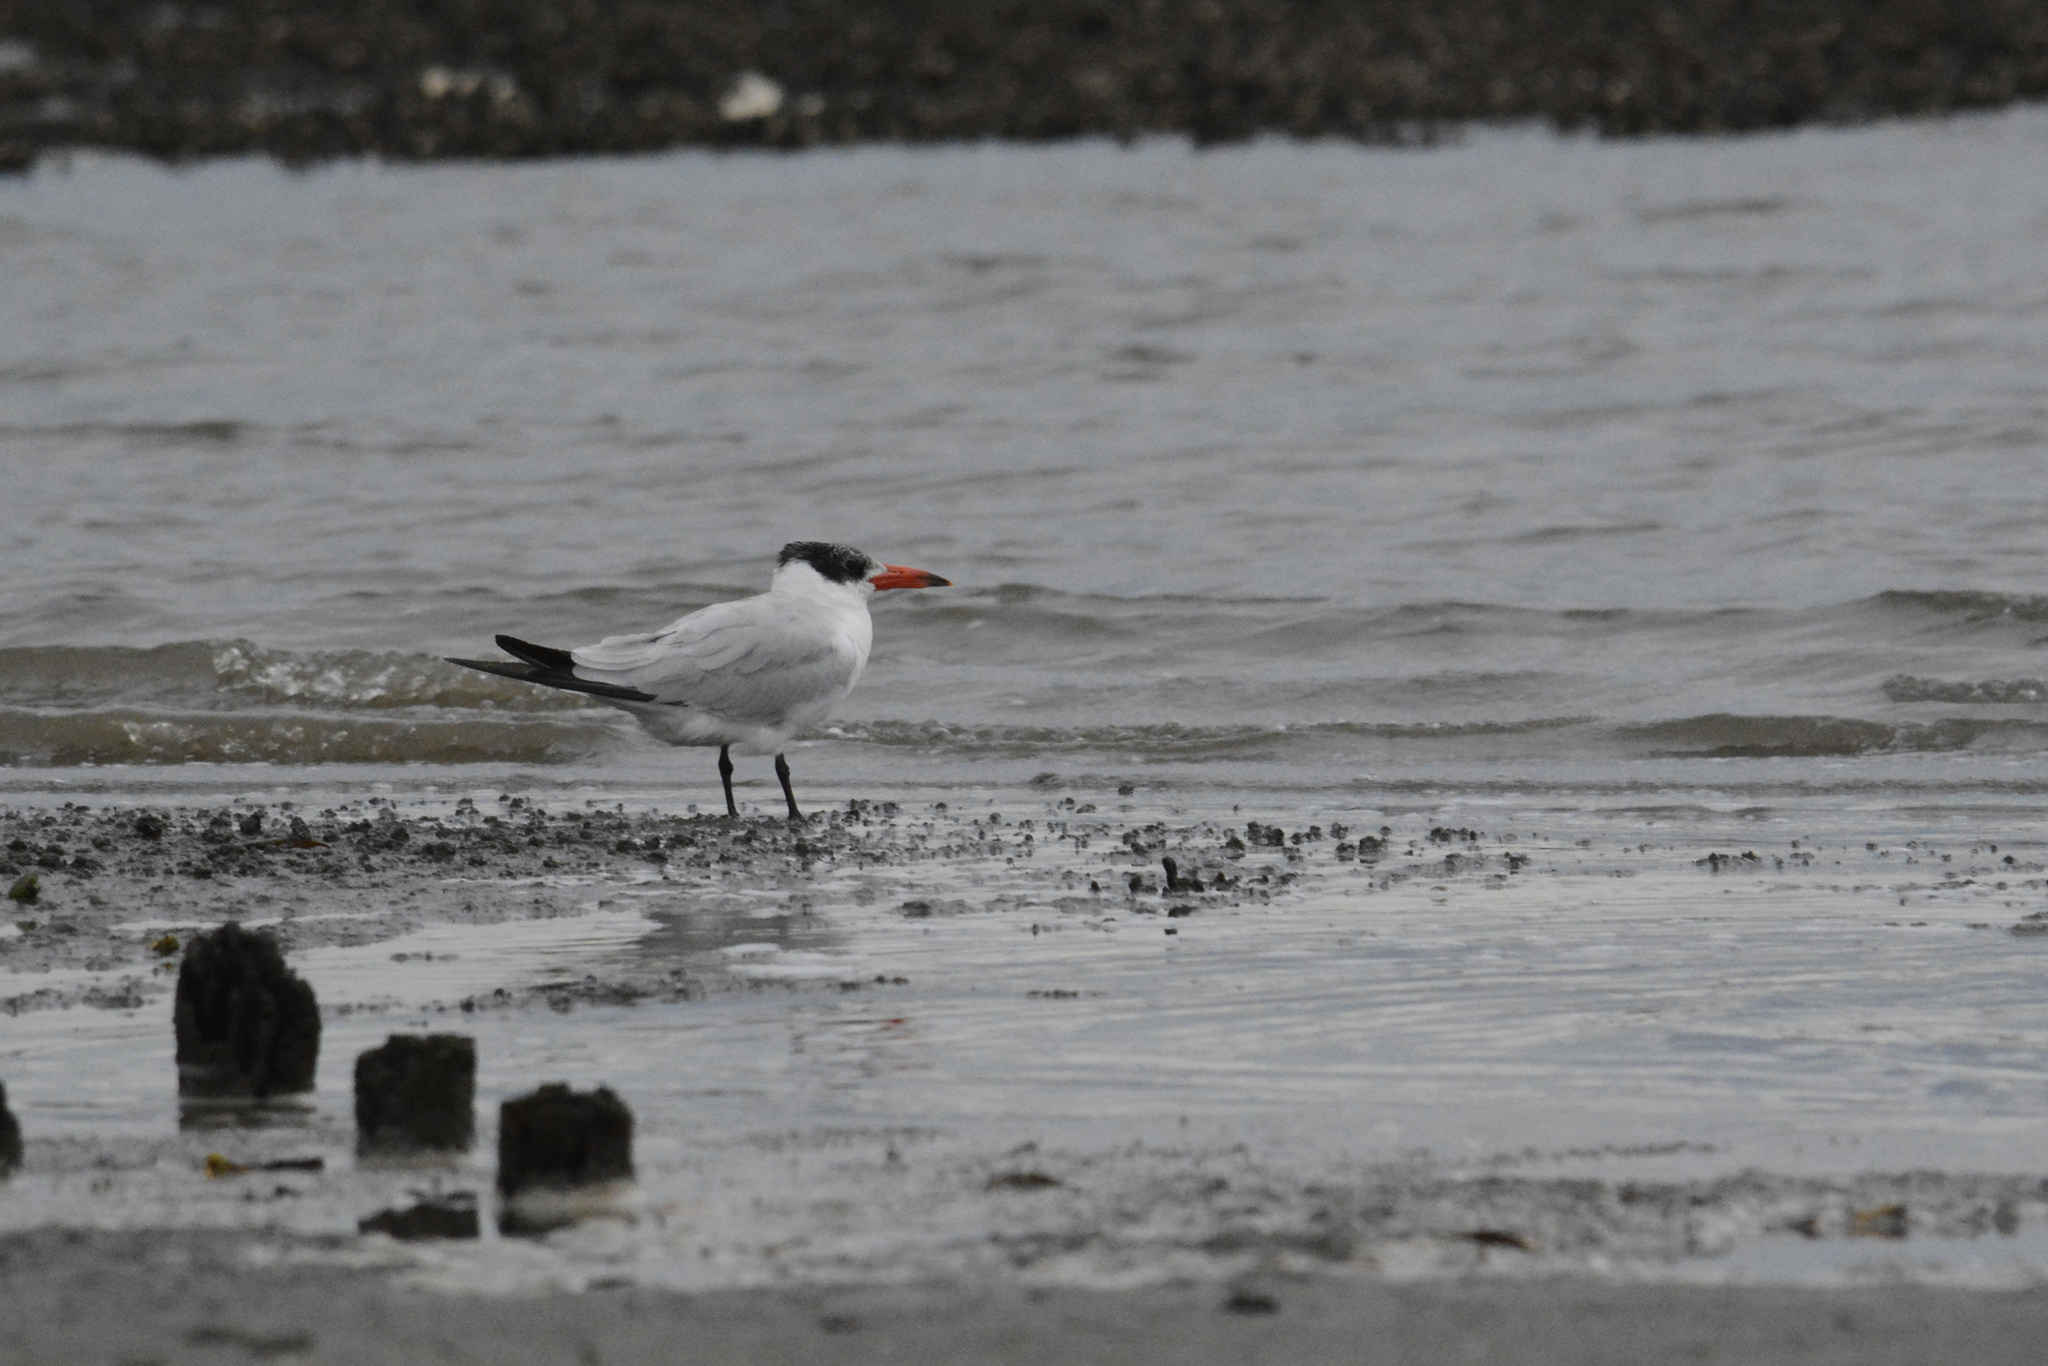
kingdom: Animalia
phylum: Chordata
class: Aves
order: Charadriiformes
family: Laridae
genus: Hydroprogne
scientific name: Hydroprogne caspia
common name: Caspian tern
